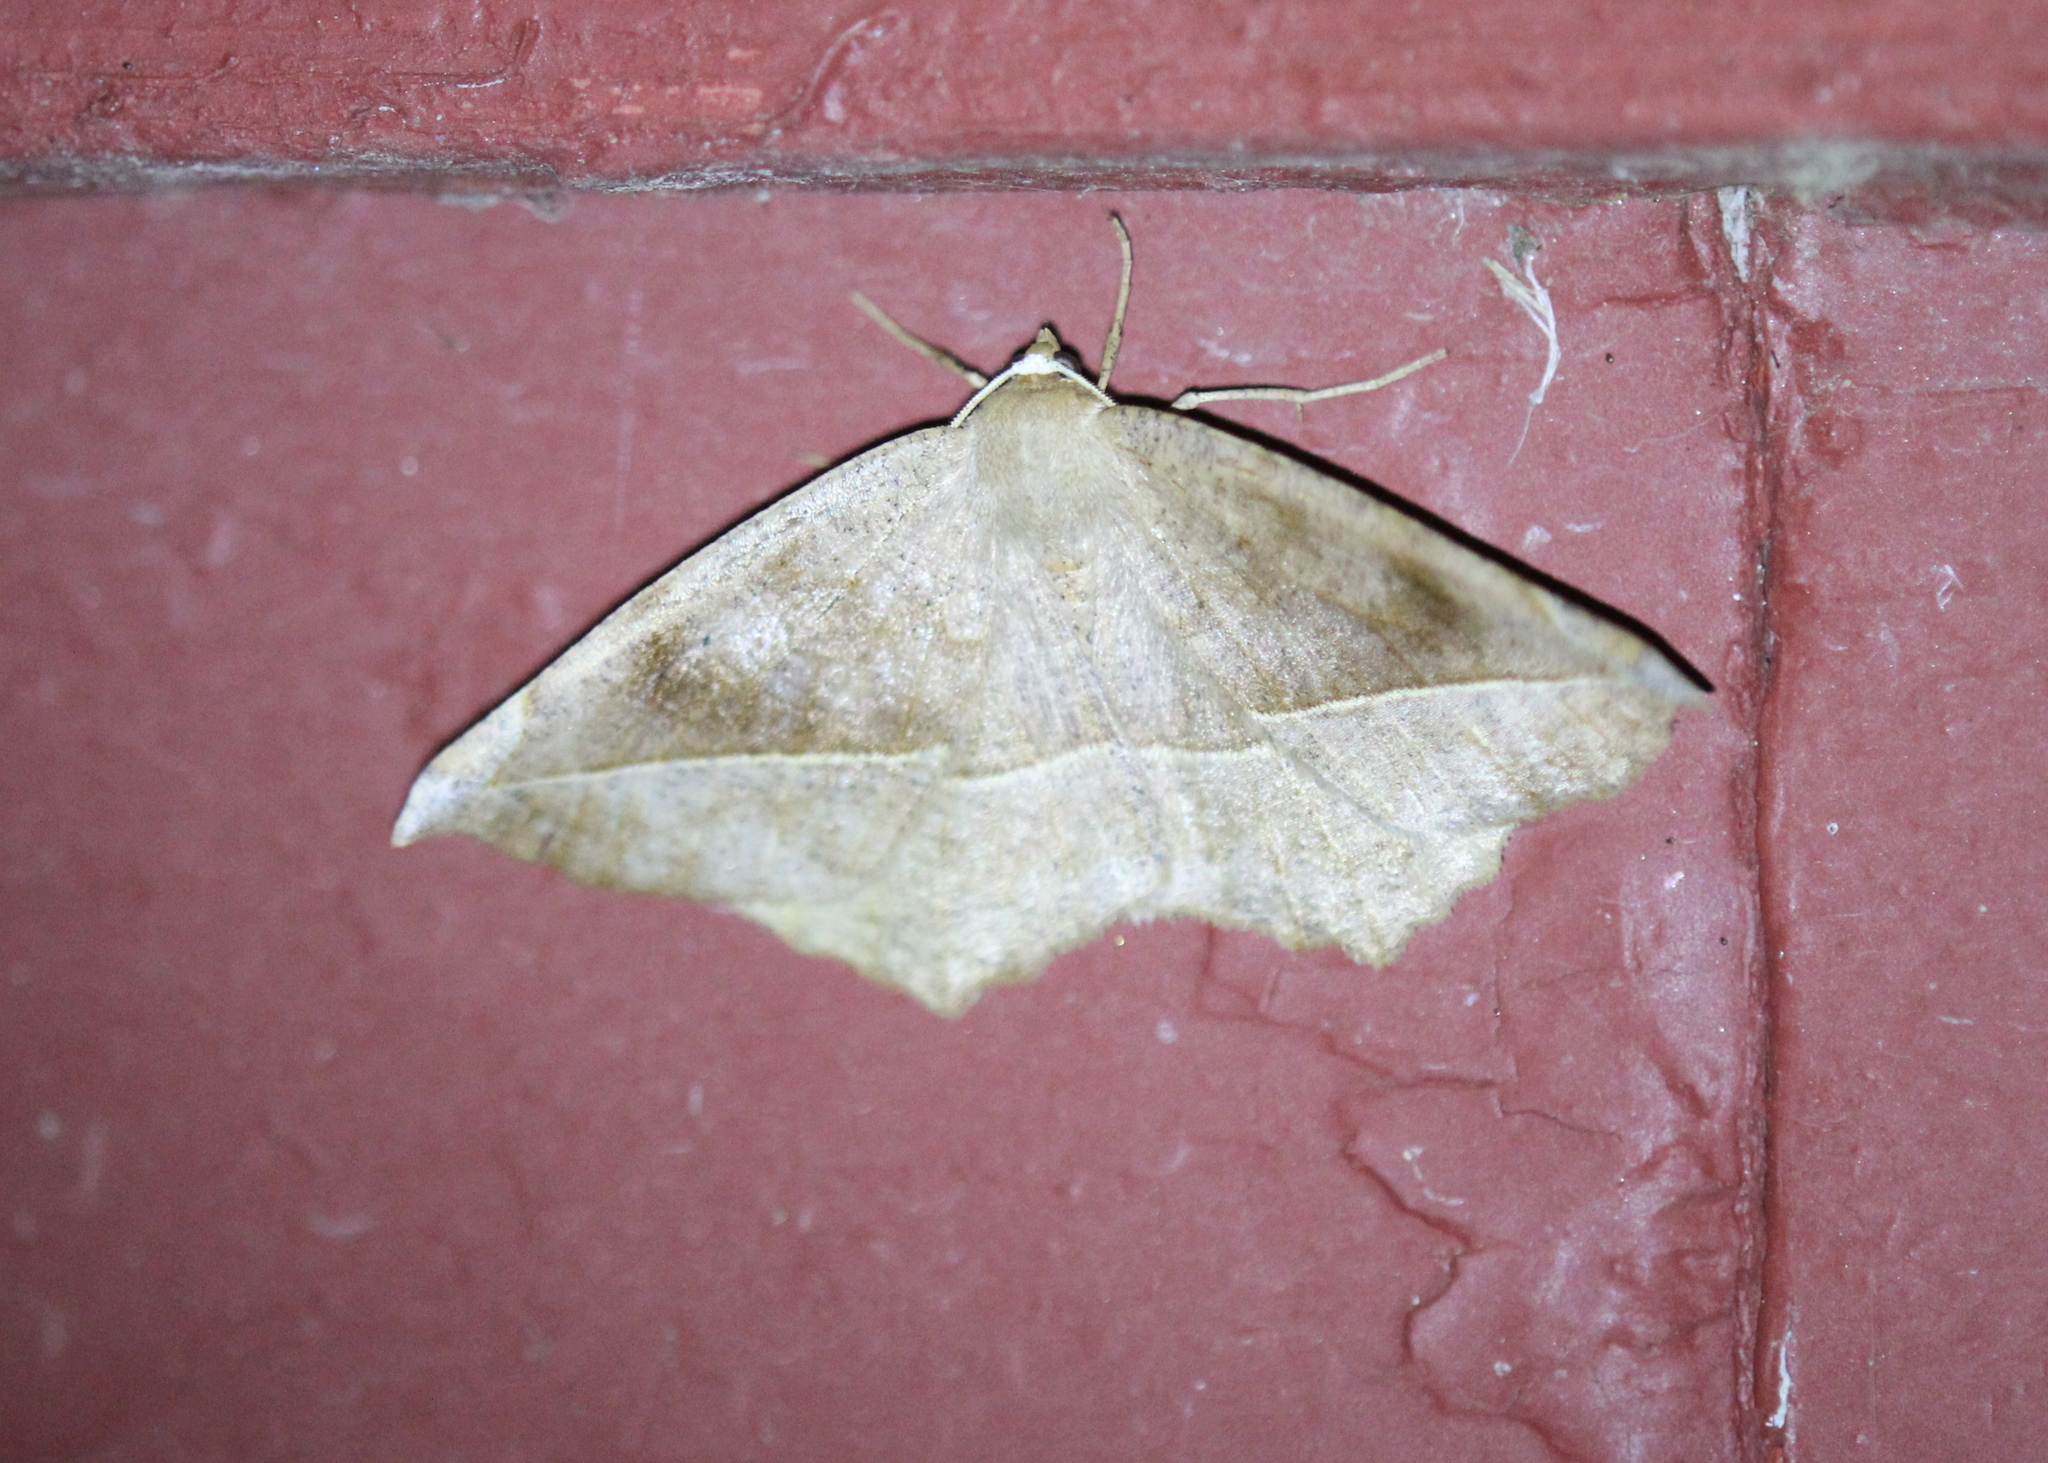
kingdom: Animalia
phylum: Arthropoda
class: Insecta
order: Lepidoptera
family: Geometridae
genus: Eutrapela
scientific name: Eutrapela clemataria
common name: Curved-toothed geometer
